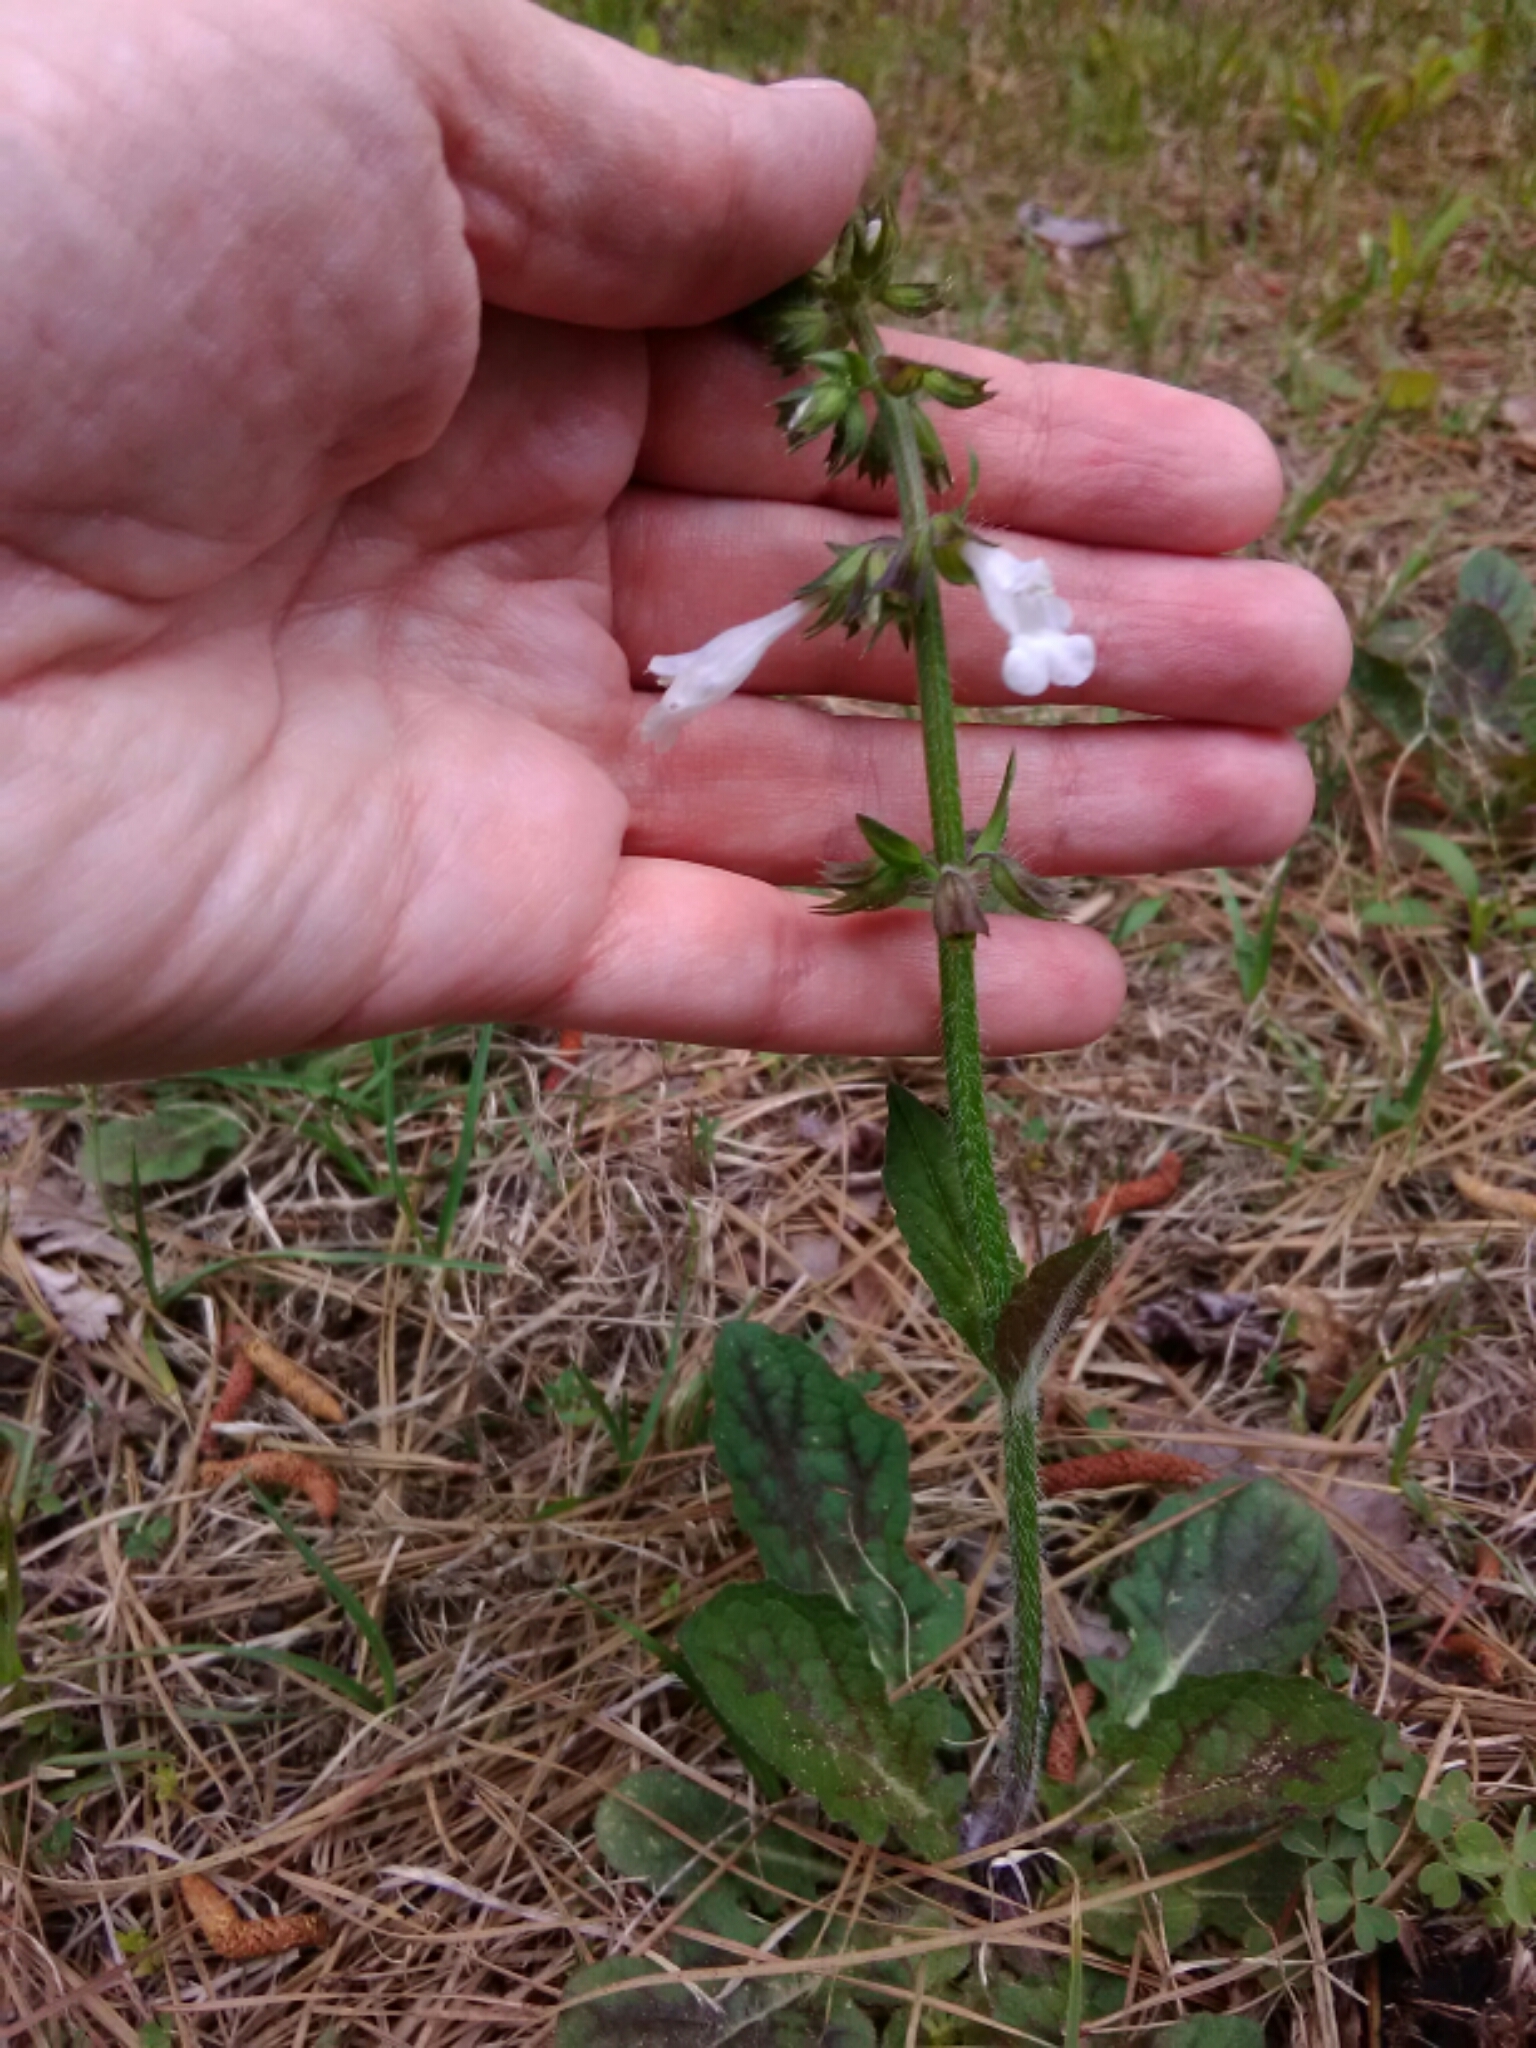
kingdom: Plantae
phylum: Tracheophyta
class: Magnoliopsida
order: Lamiales
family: Lamiaceae
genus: Salvia
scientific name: Salvia lyrata
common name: Cancerweed
